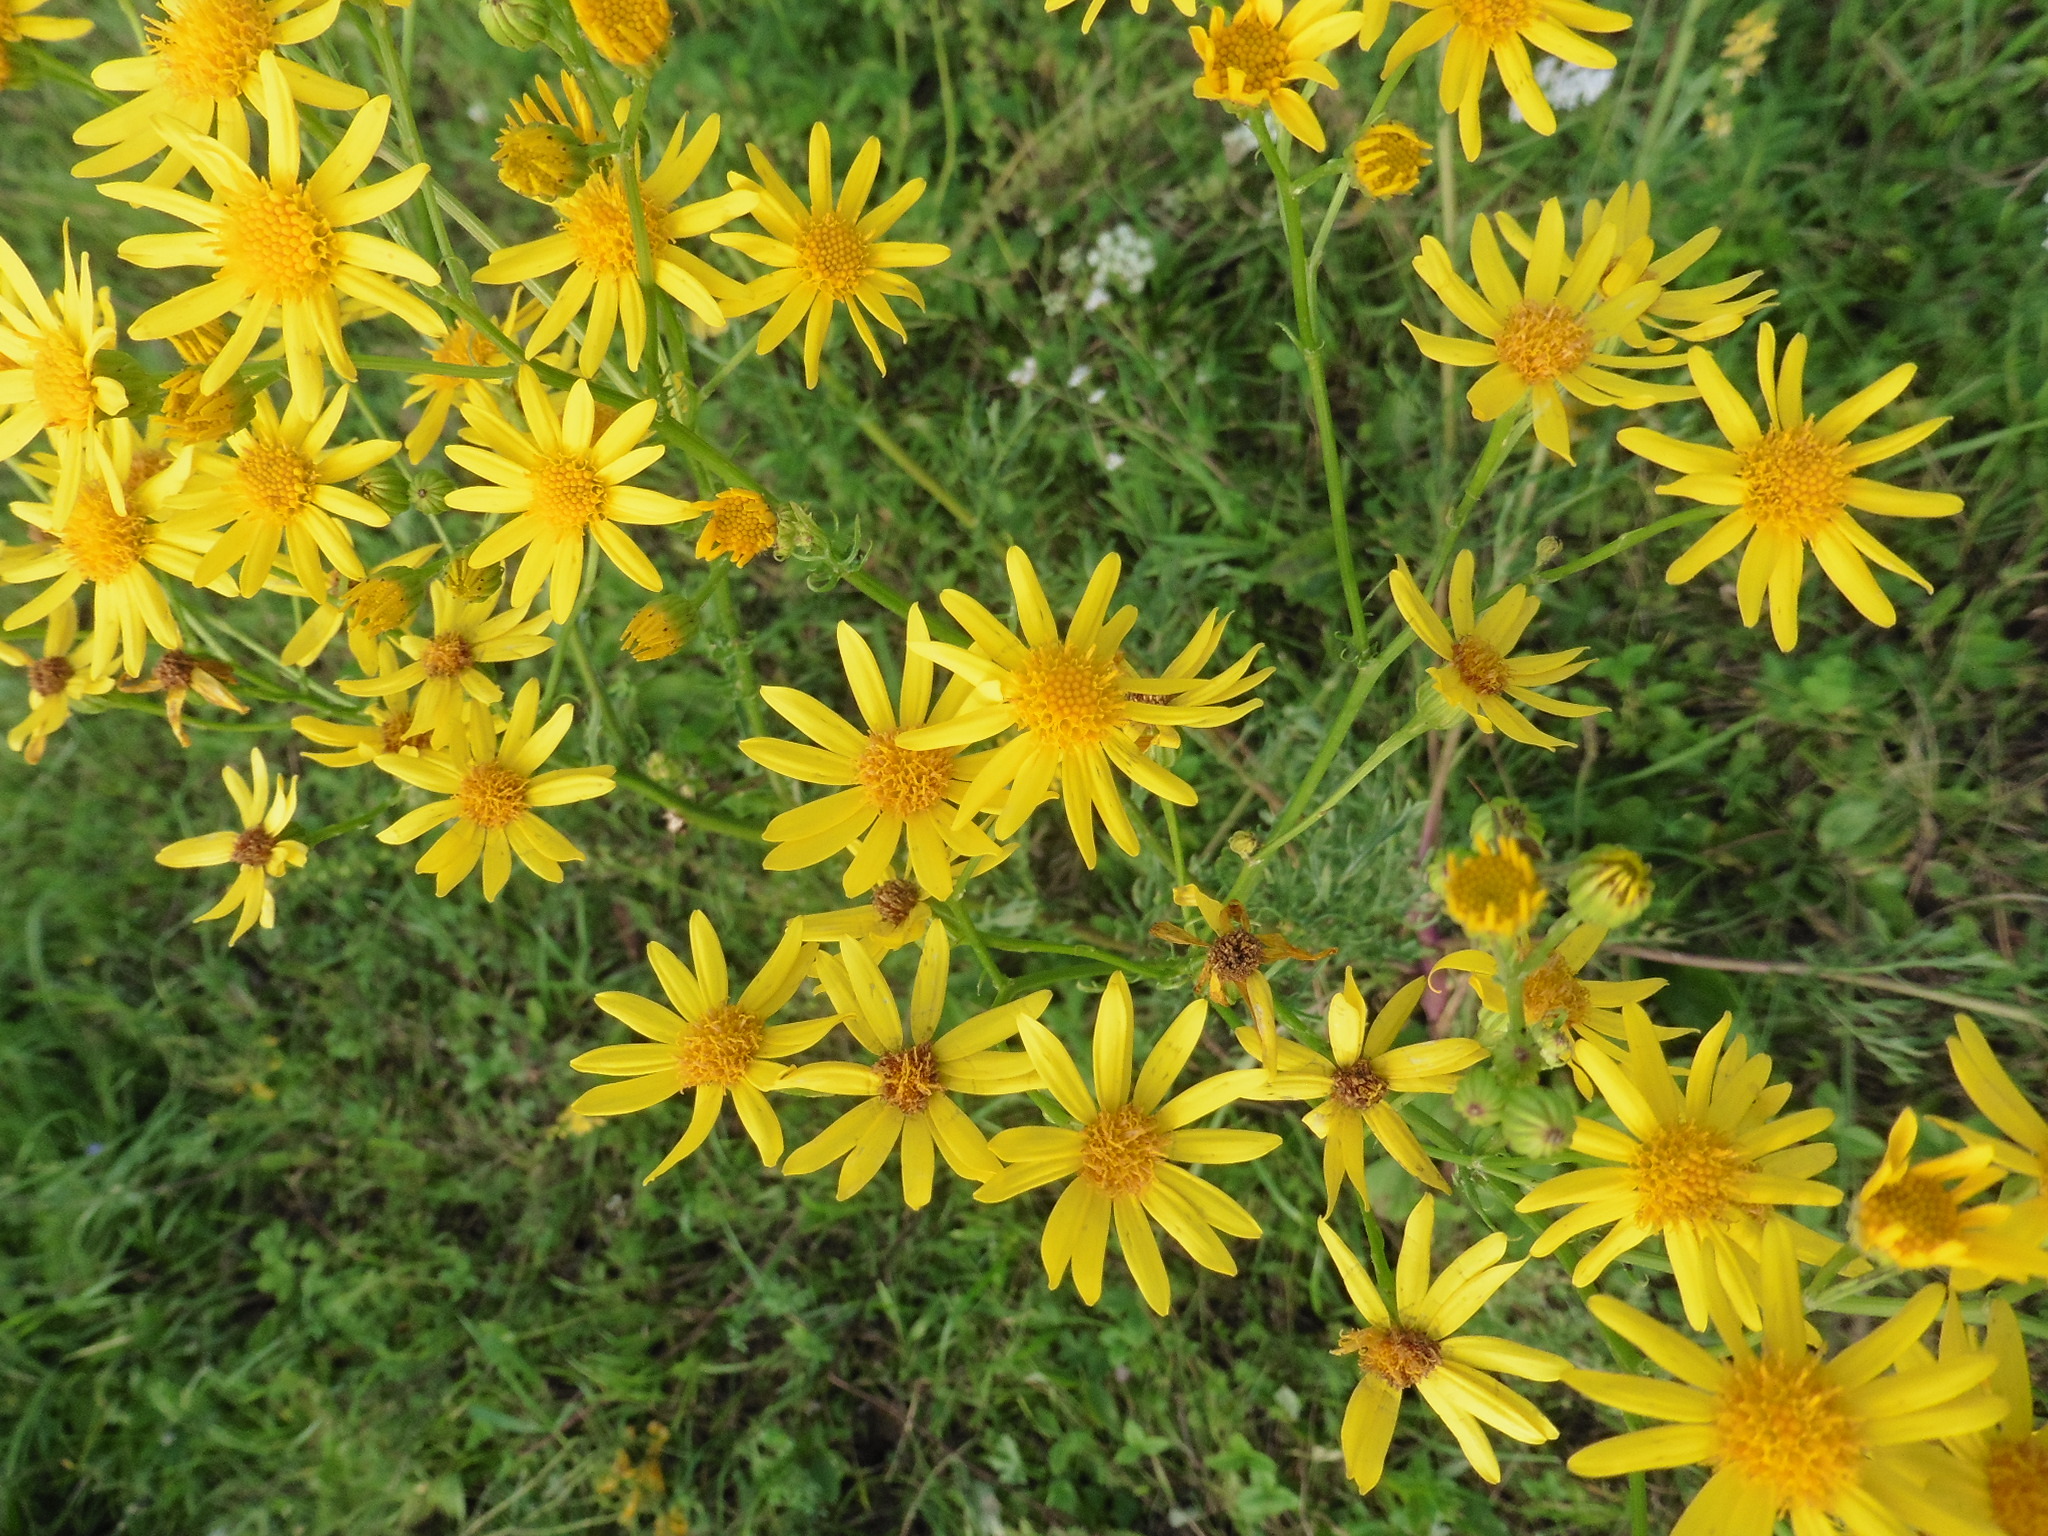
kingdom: Plantae
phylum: Tracheophyta
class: Magnoliopsida
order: Asterales
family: Asteraceae
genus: Jacobaea
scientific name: Jacobaea vulgaris
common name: Stinking willie
